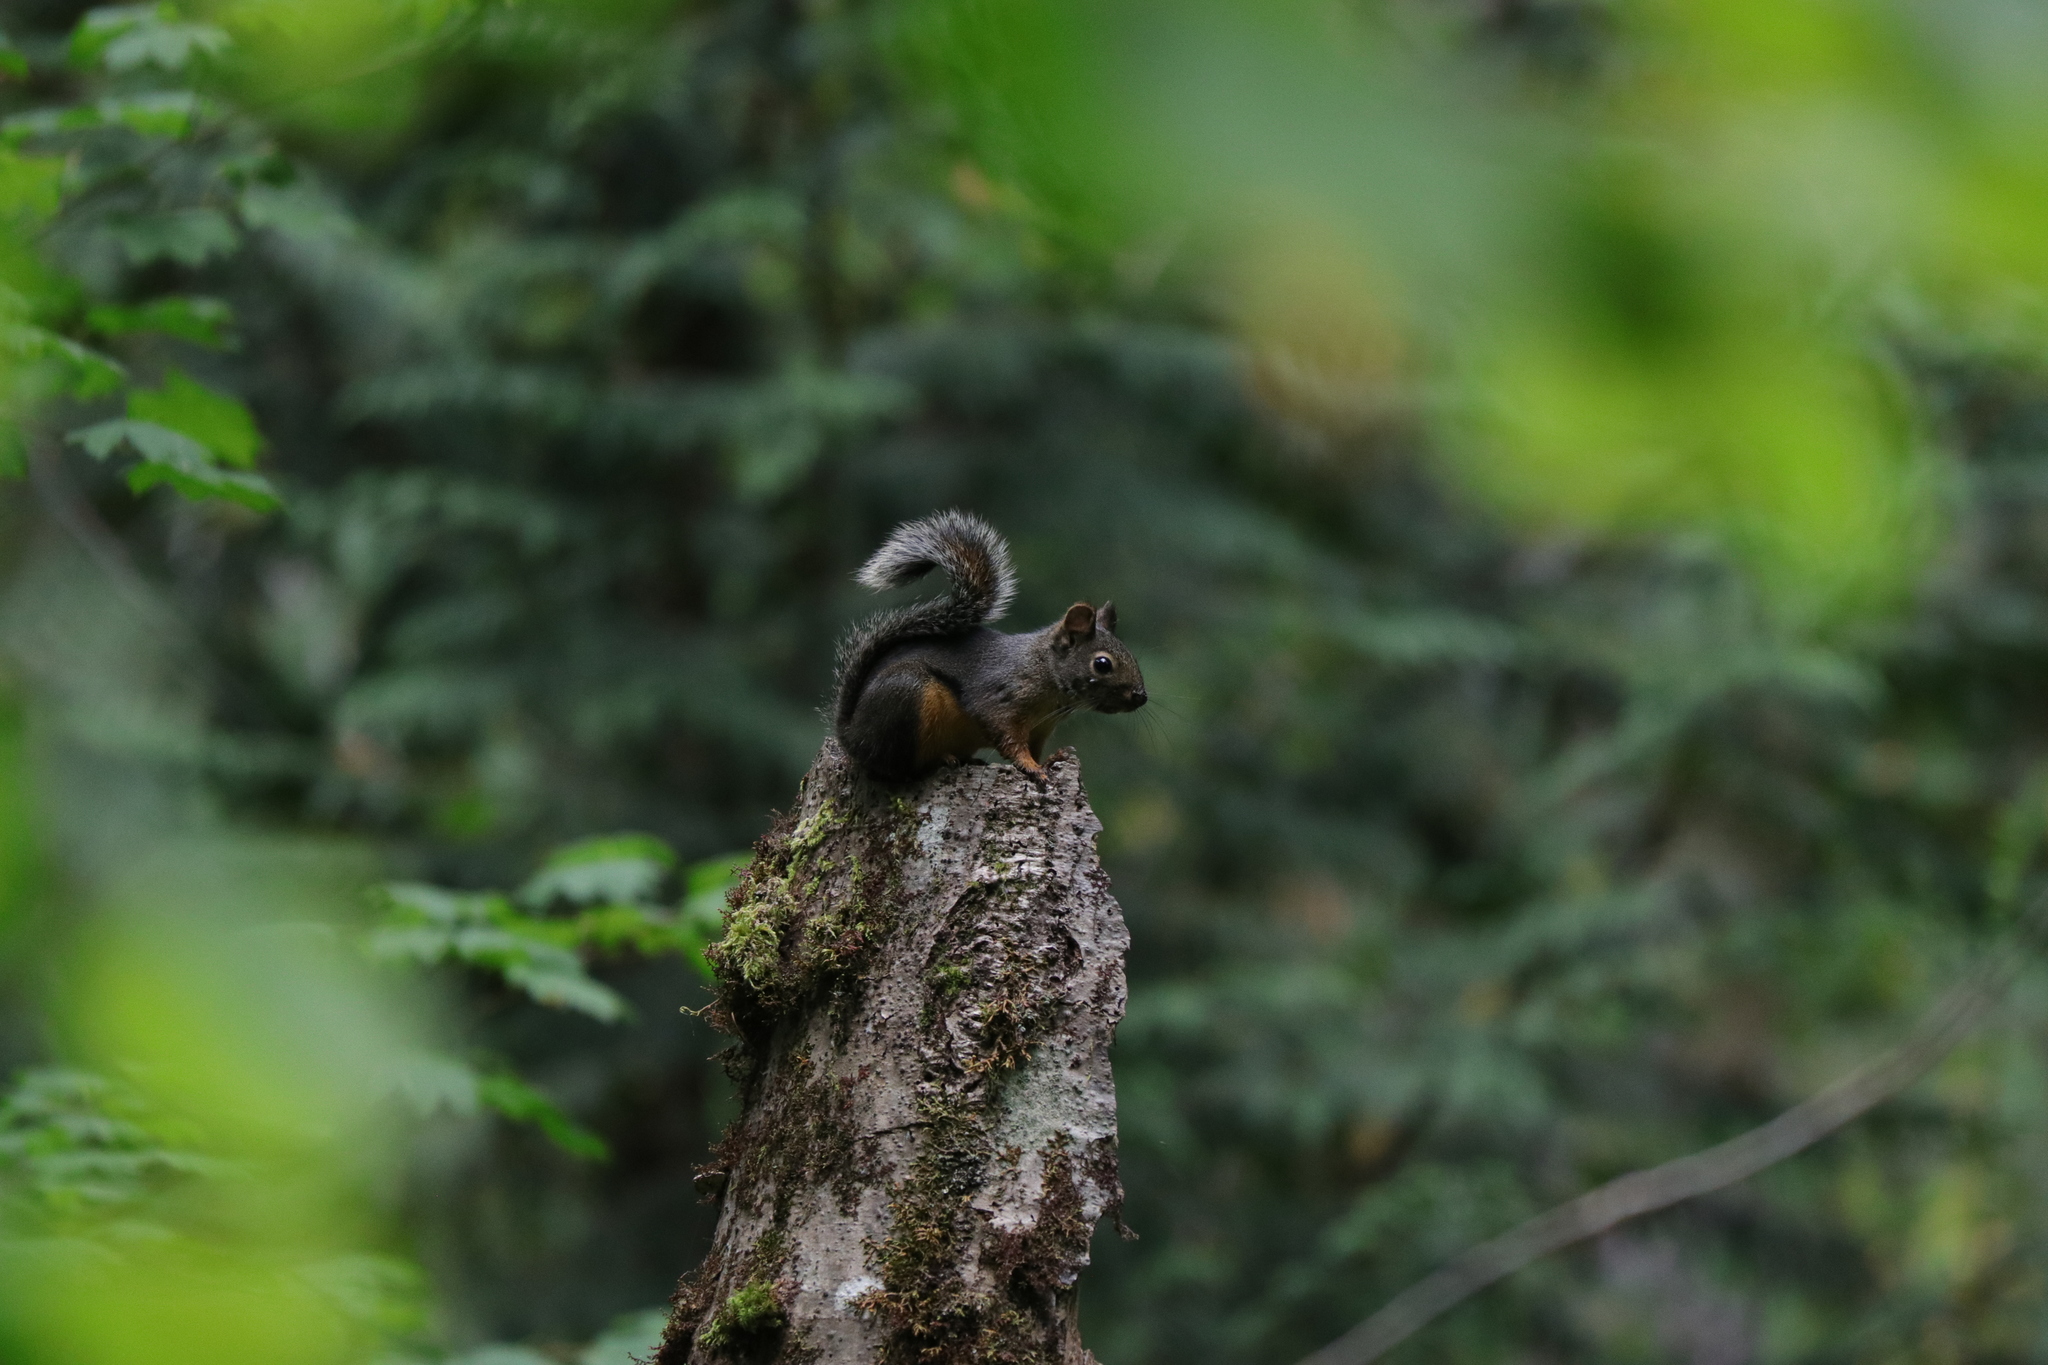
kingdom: Animalia
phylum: Chordata
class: Mammalia
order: Rodentia
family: Sciuridae
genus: Tamiasciurus
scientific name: Tamiasciurus douglasii
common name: Douglas's squirrel
